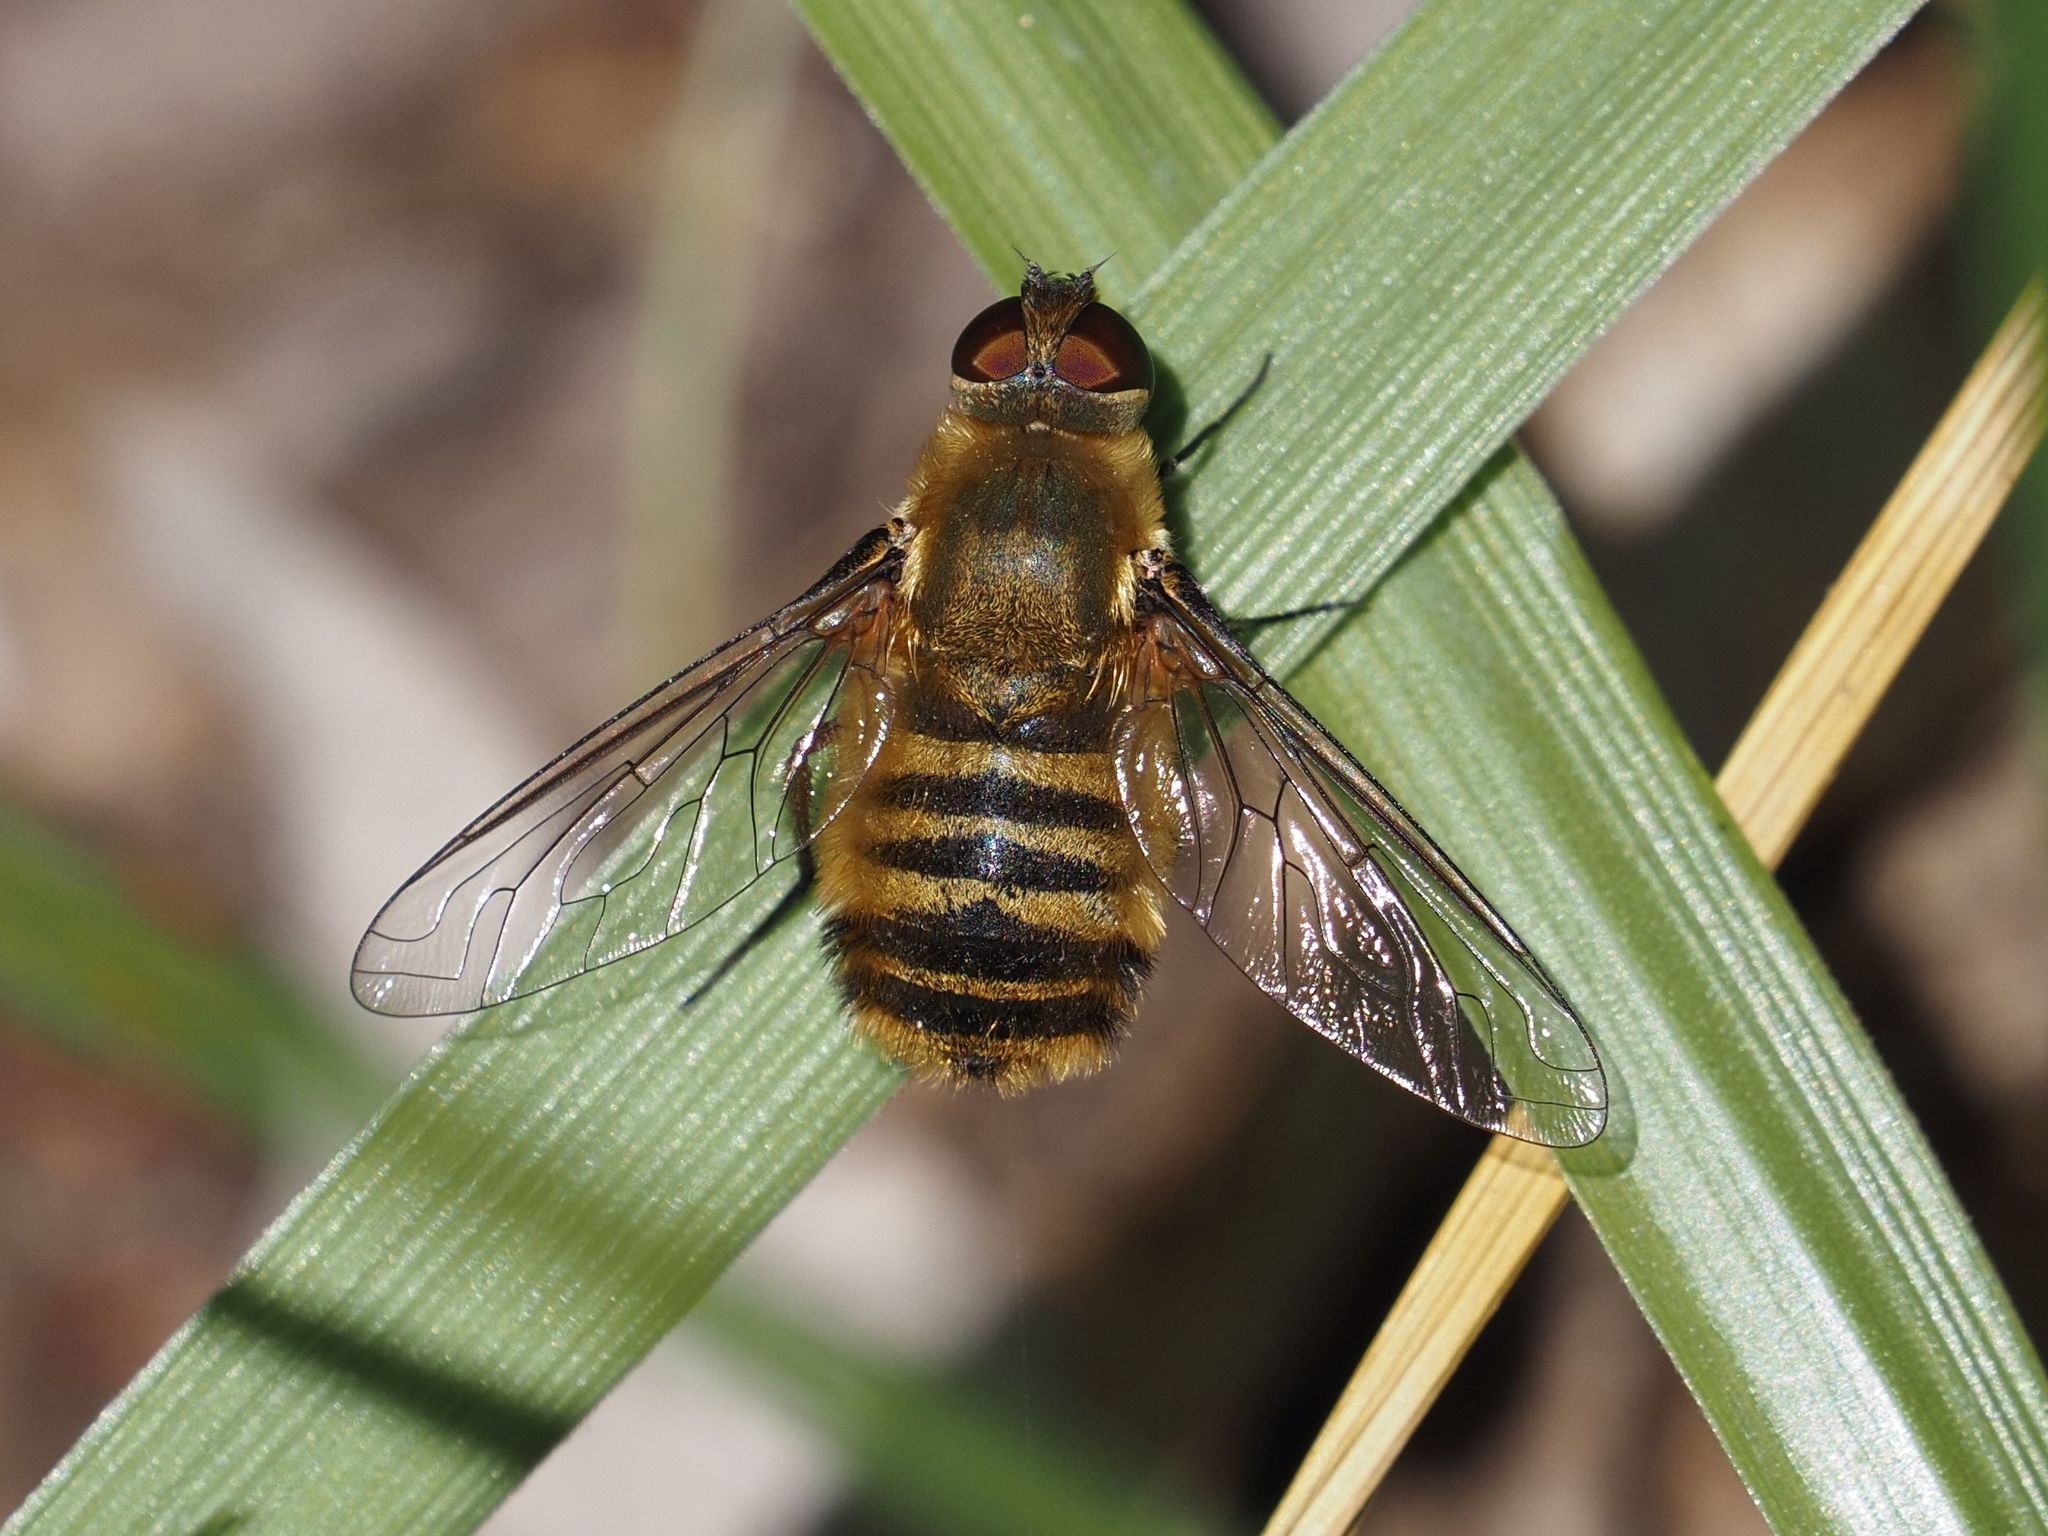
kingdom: Animalia
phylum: Arthropoda
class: Insecta
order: Diptera
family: Bombyliidae
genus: Villa
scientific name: Villa hottentotta
